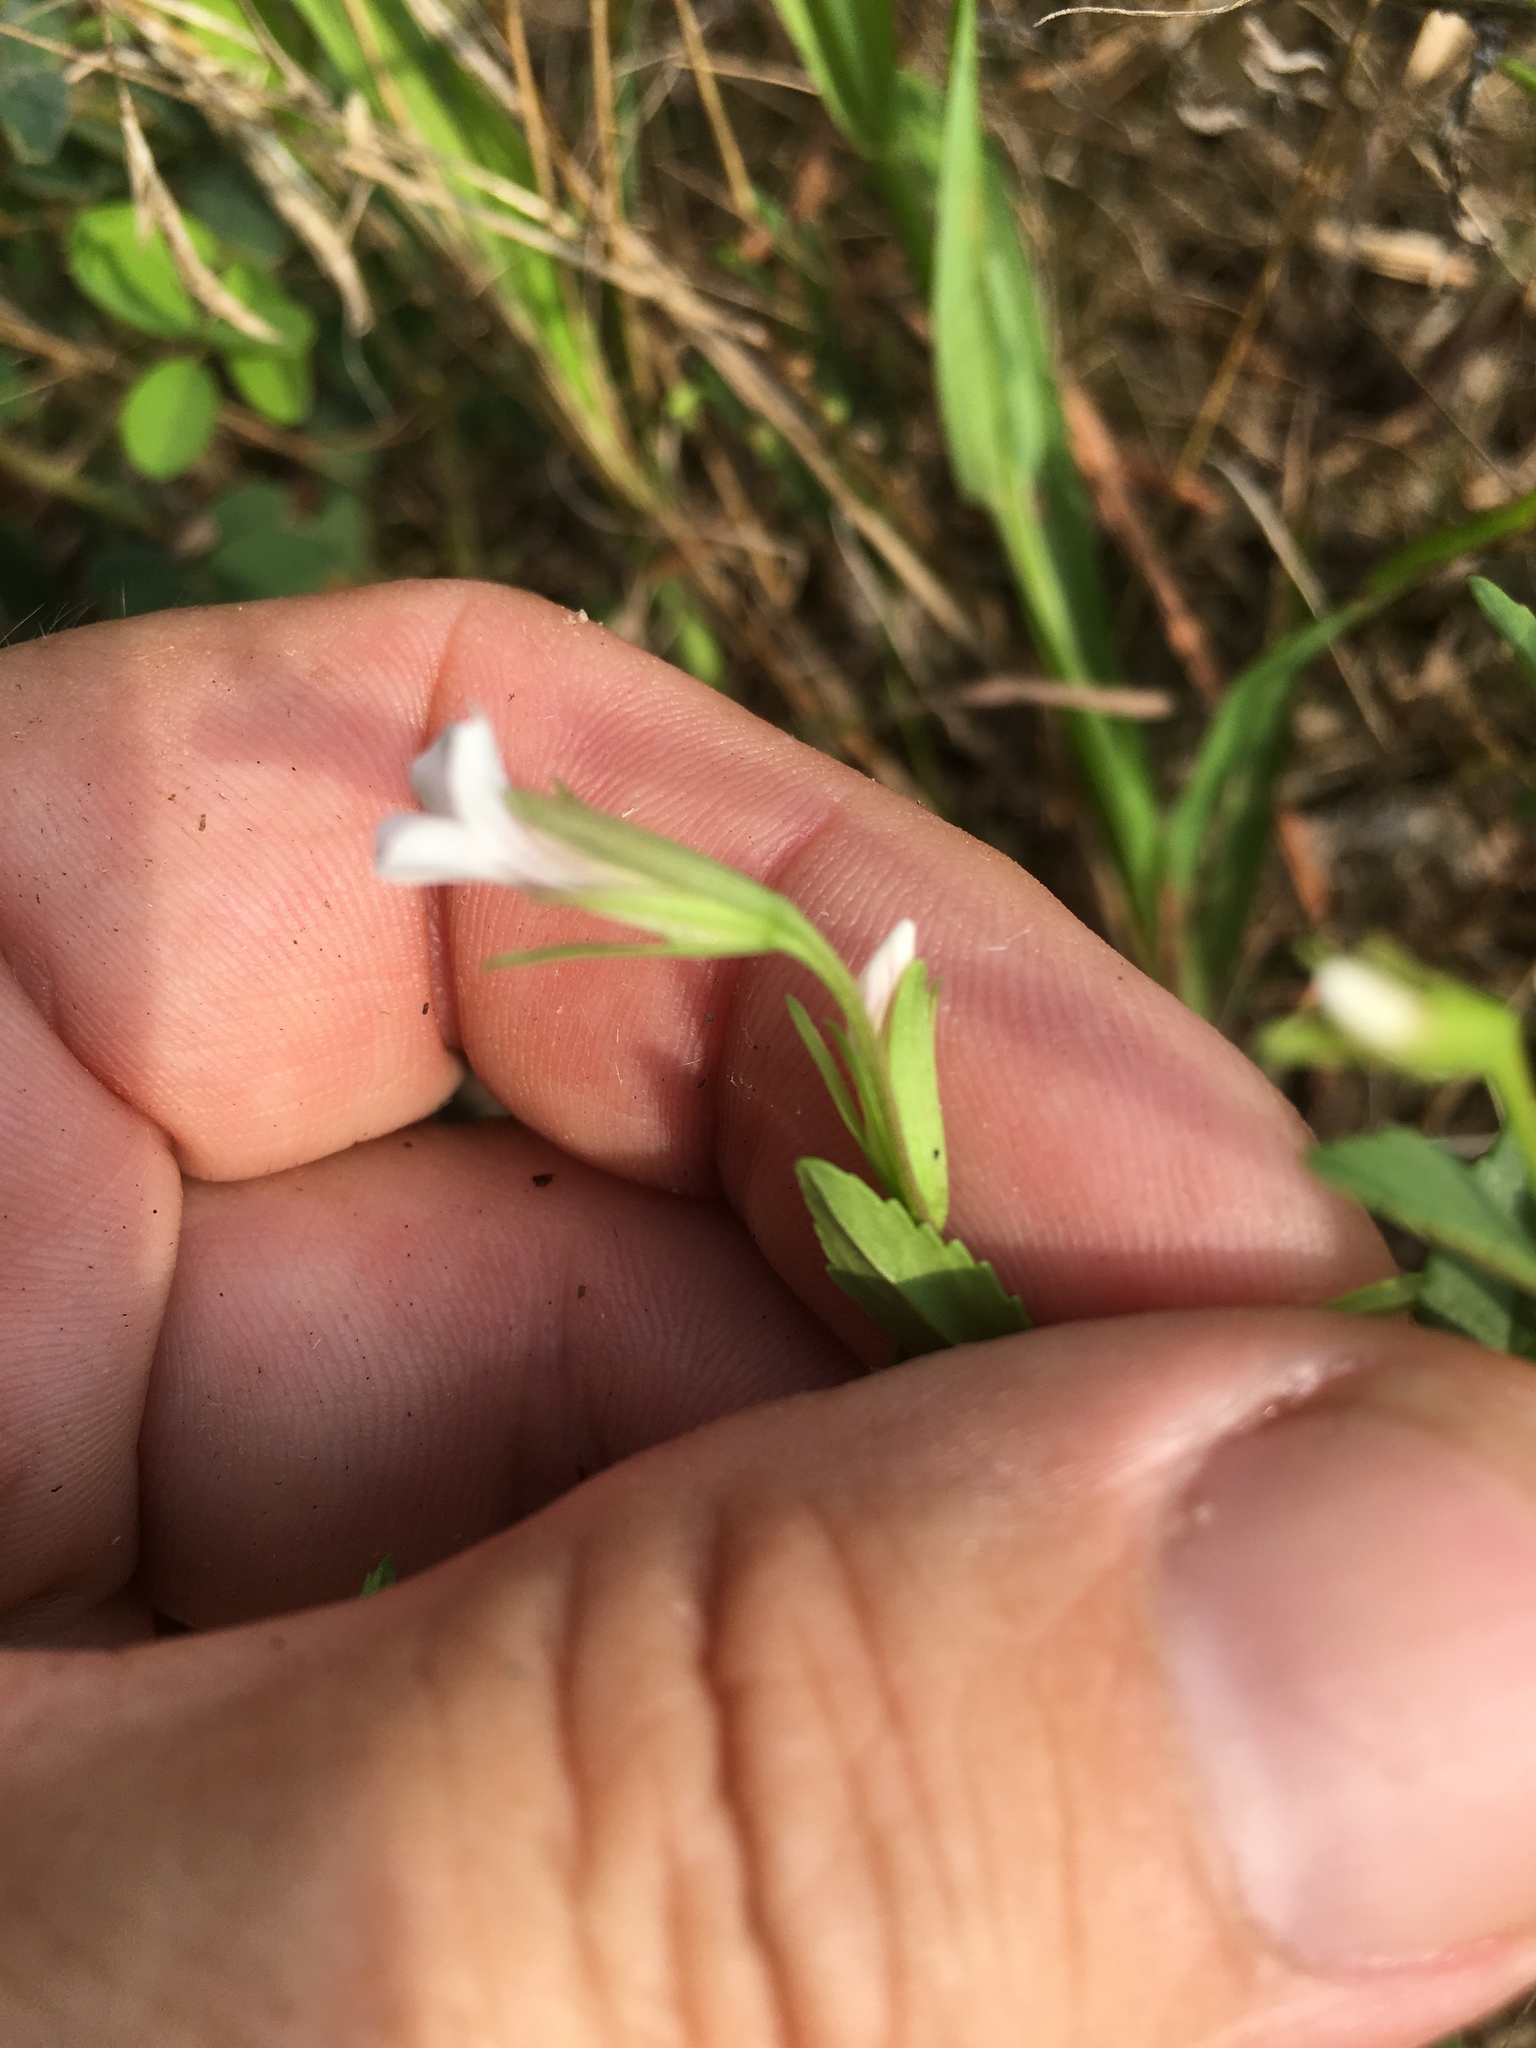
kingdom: Plantae
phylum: Tracheophyta
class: Magnoliopsida
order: Lamiales
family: Plantaginaceae
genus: Mecardonia
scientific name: Mecardonia acuminata
